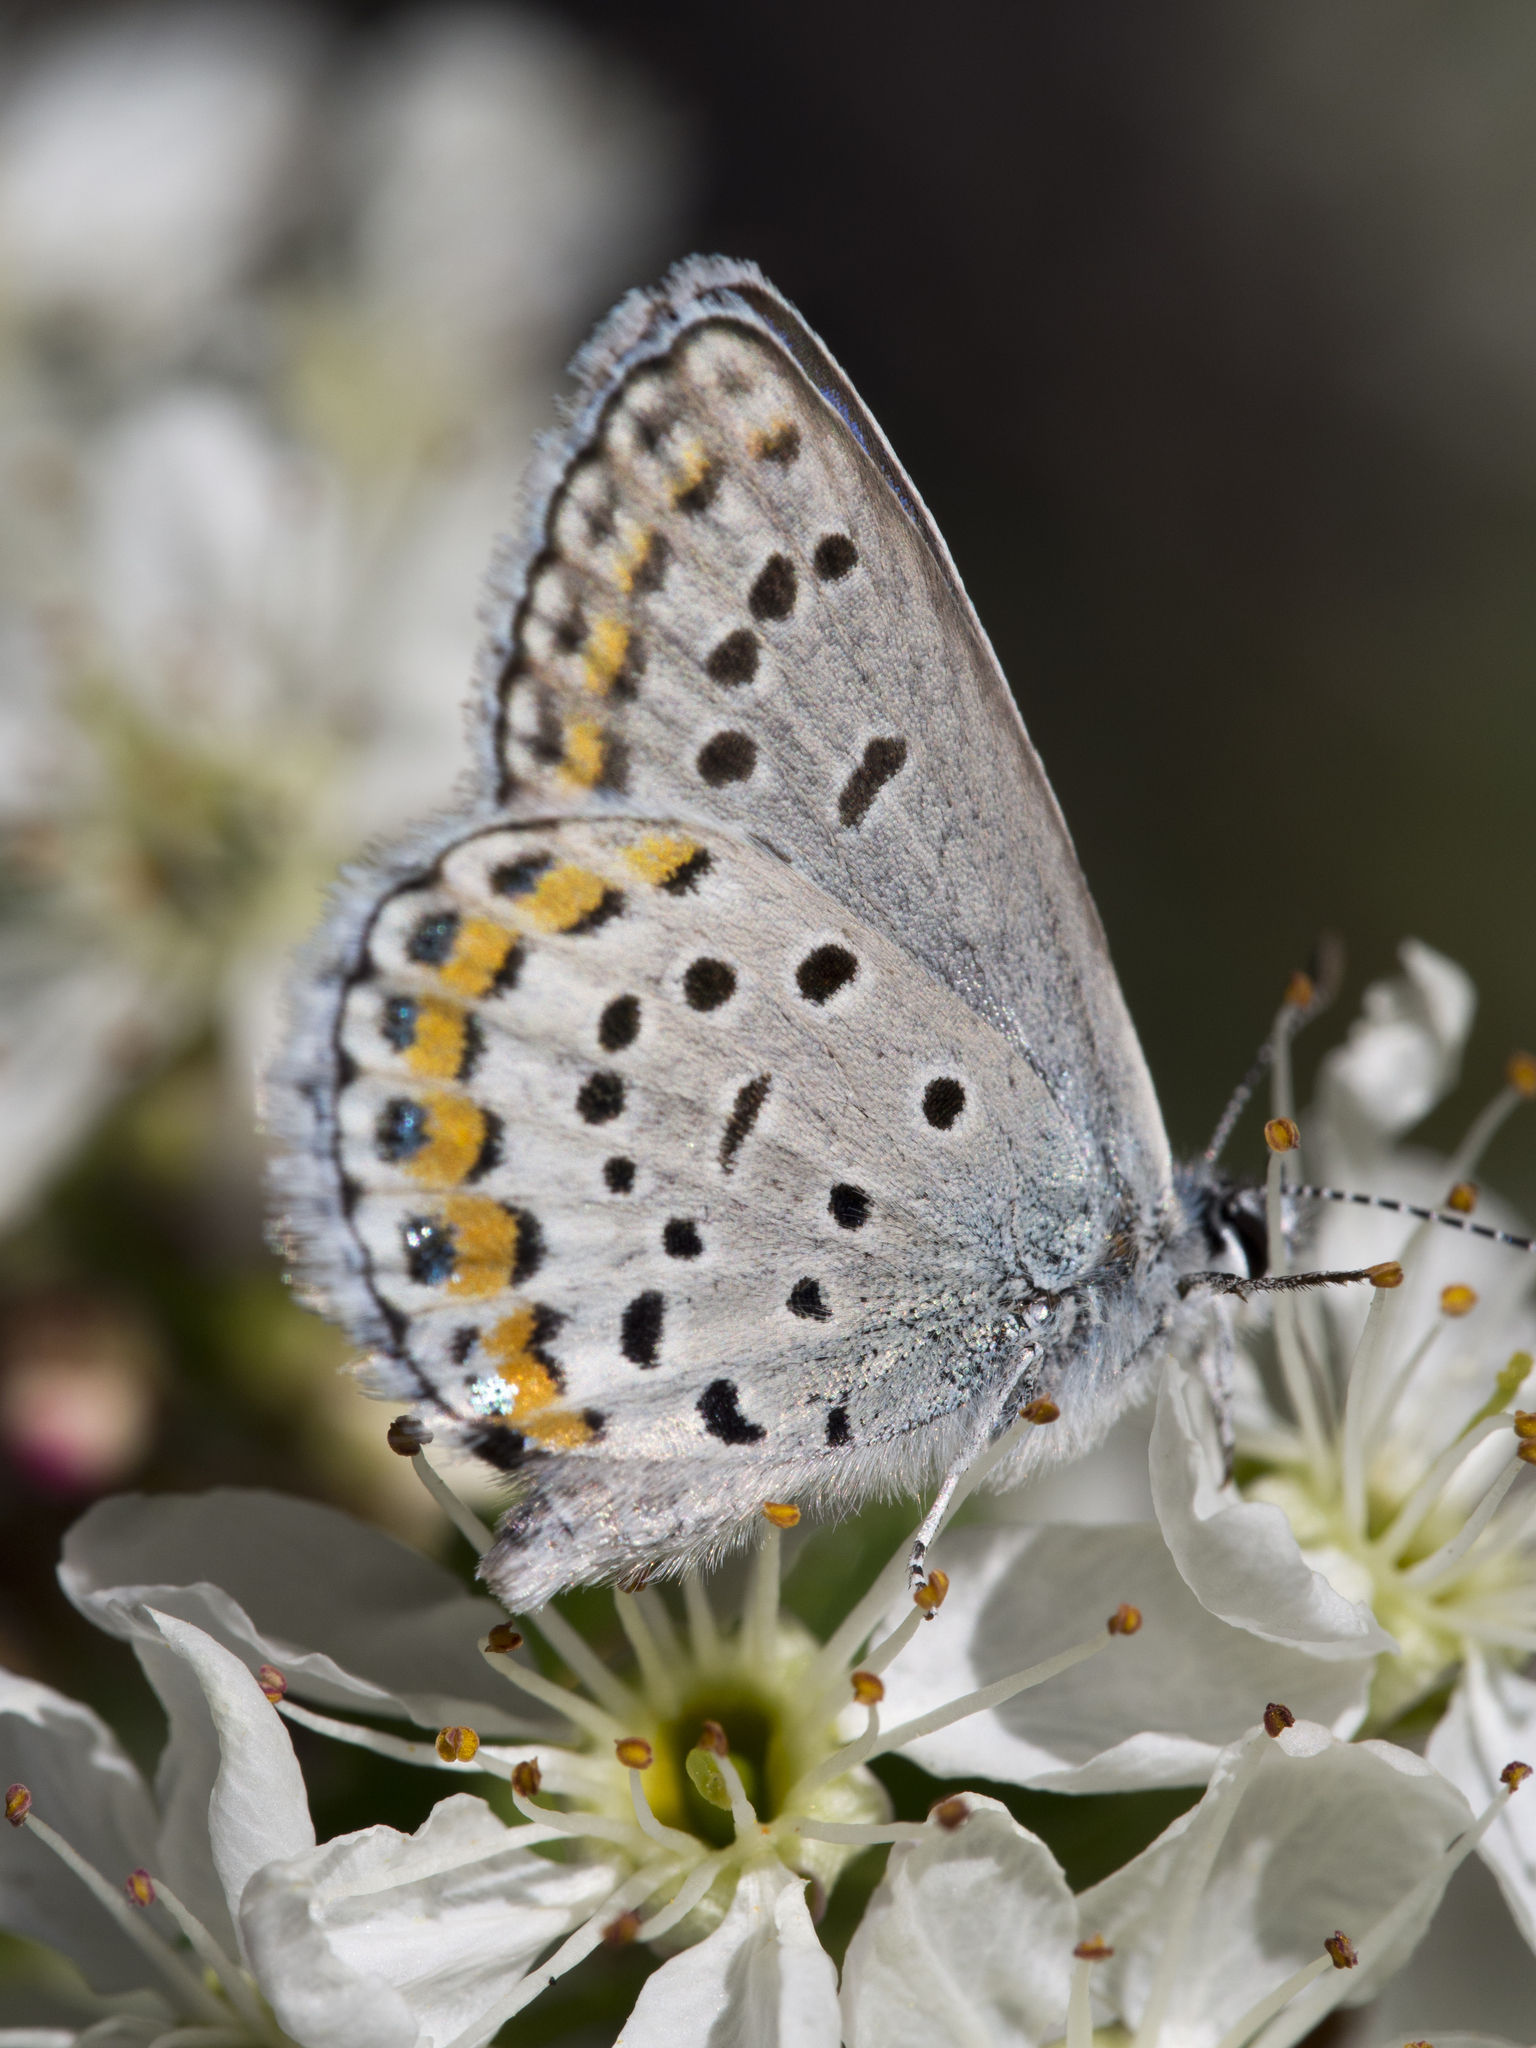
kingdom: Animalia
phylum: Arthropoda
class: Insecta
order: Lepidoptera
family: Lycaenidae
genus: Lycaeides
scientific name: Lycaeides melissa
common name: Melissa blue
